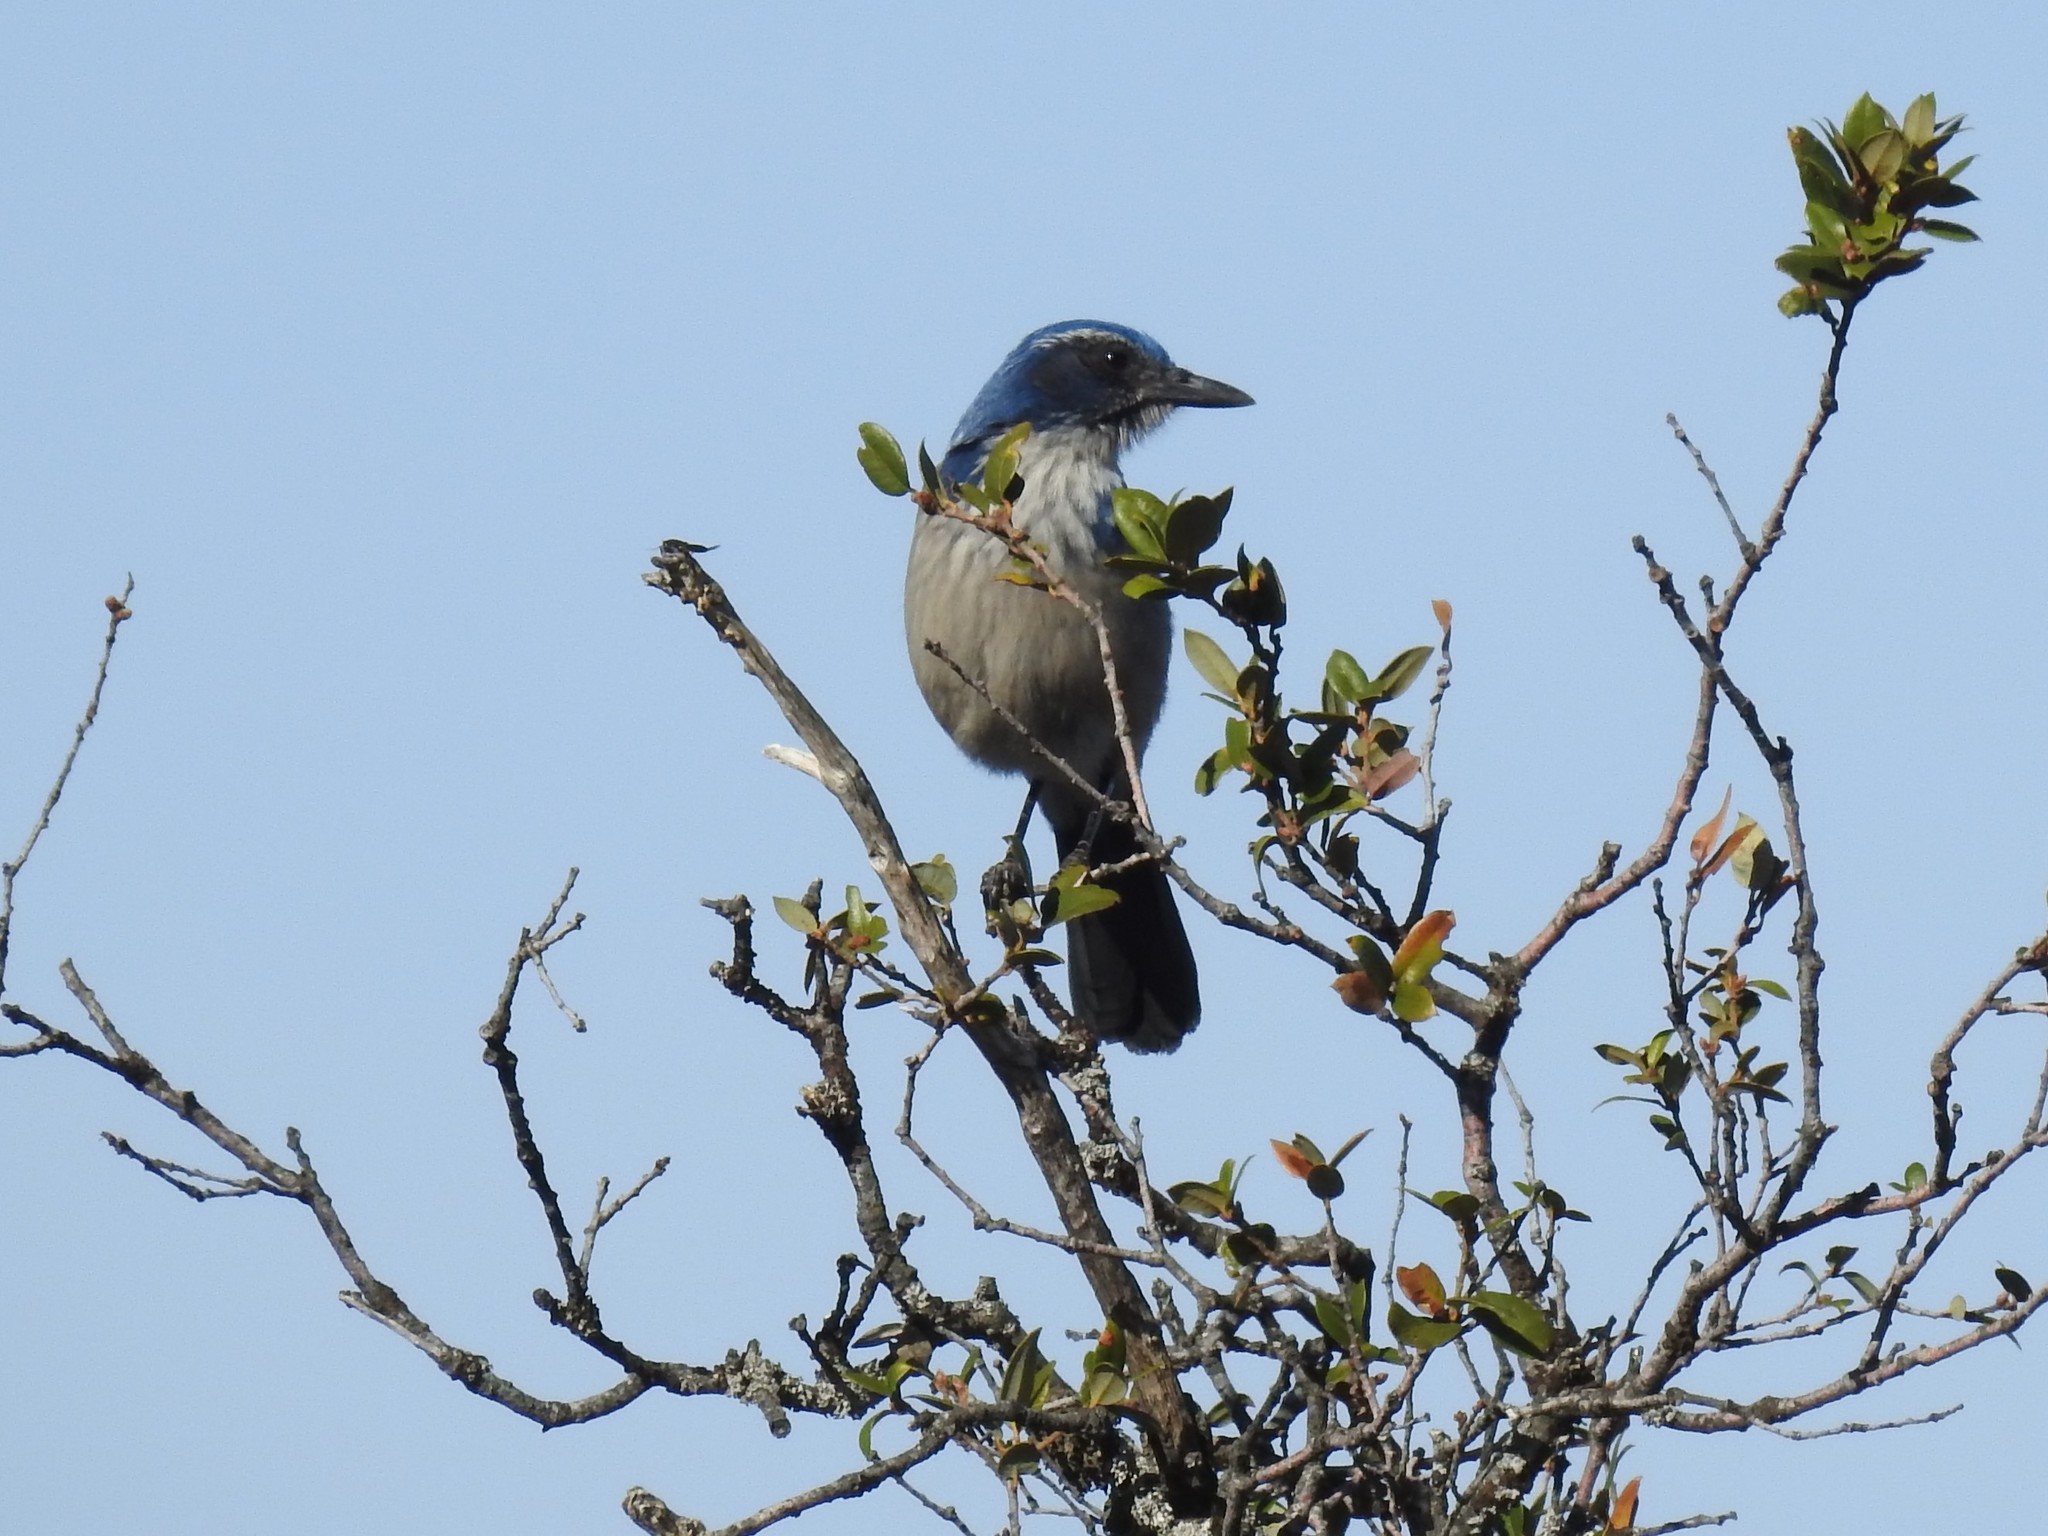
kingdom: Animalia
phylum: Chordata
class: Aves
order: Passeriformes
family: Corvidae
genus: Aphelocoma
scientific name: Aphelocoma californica
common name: California scrub-jay
